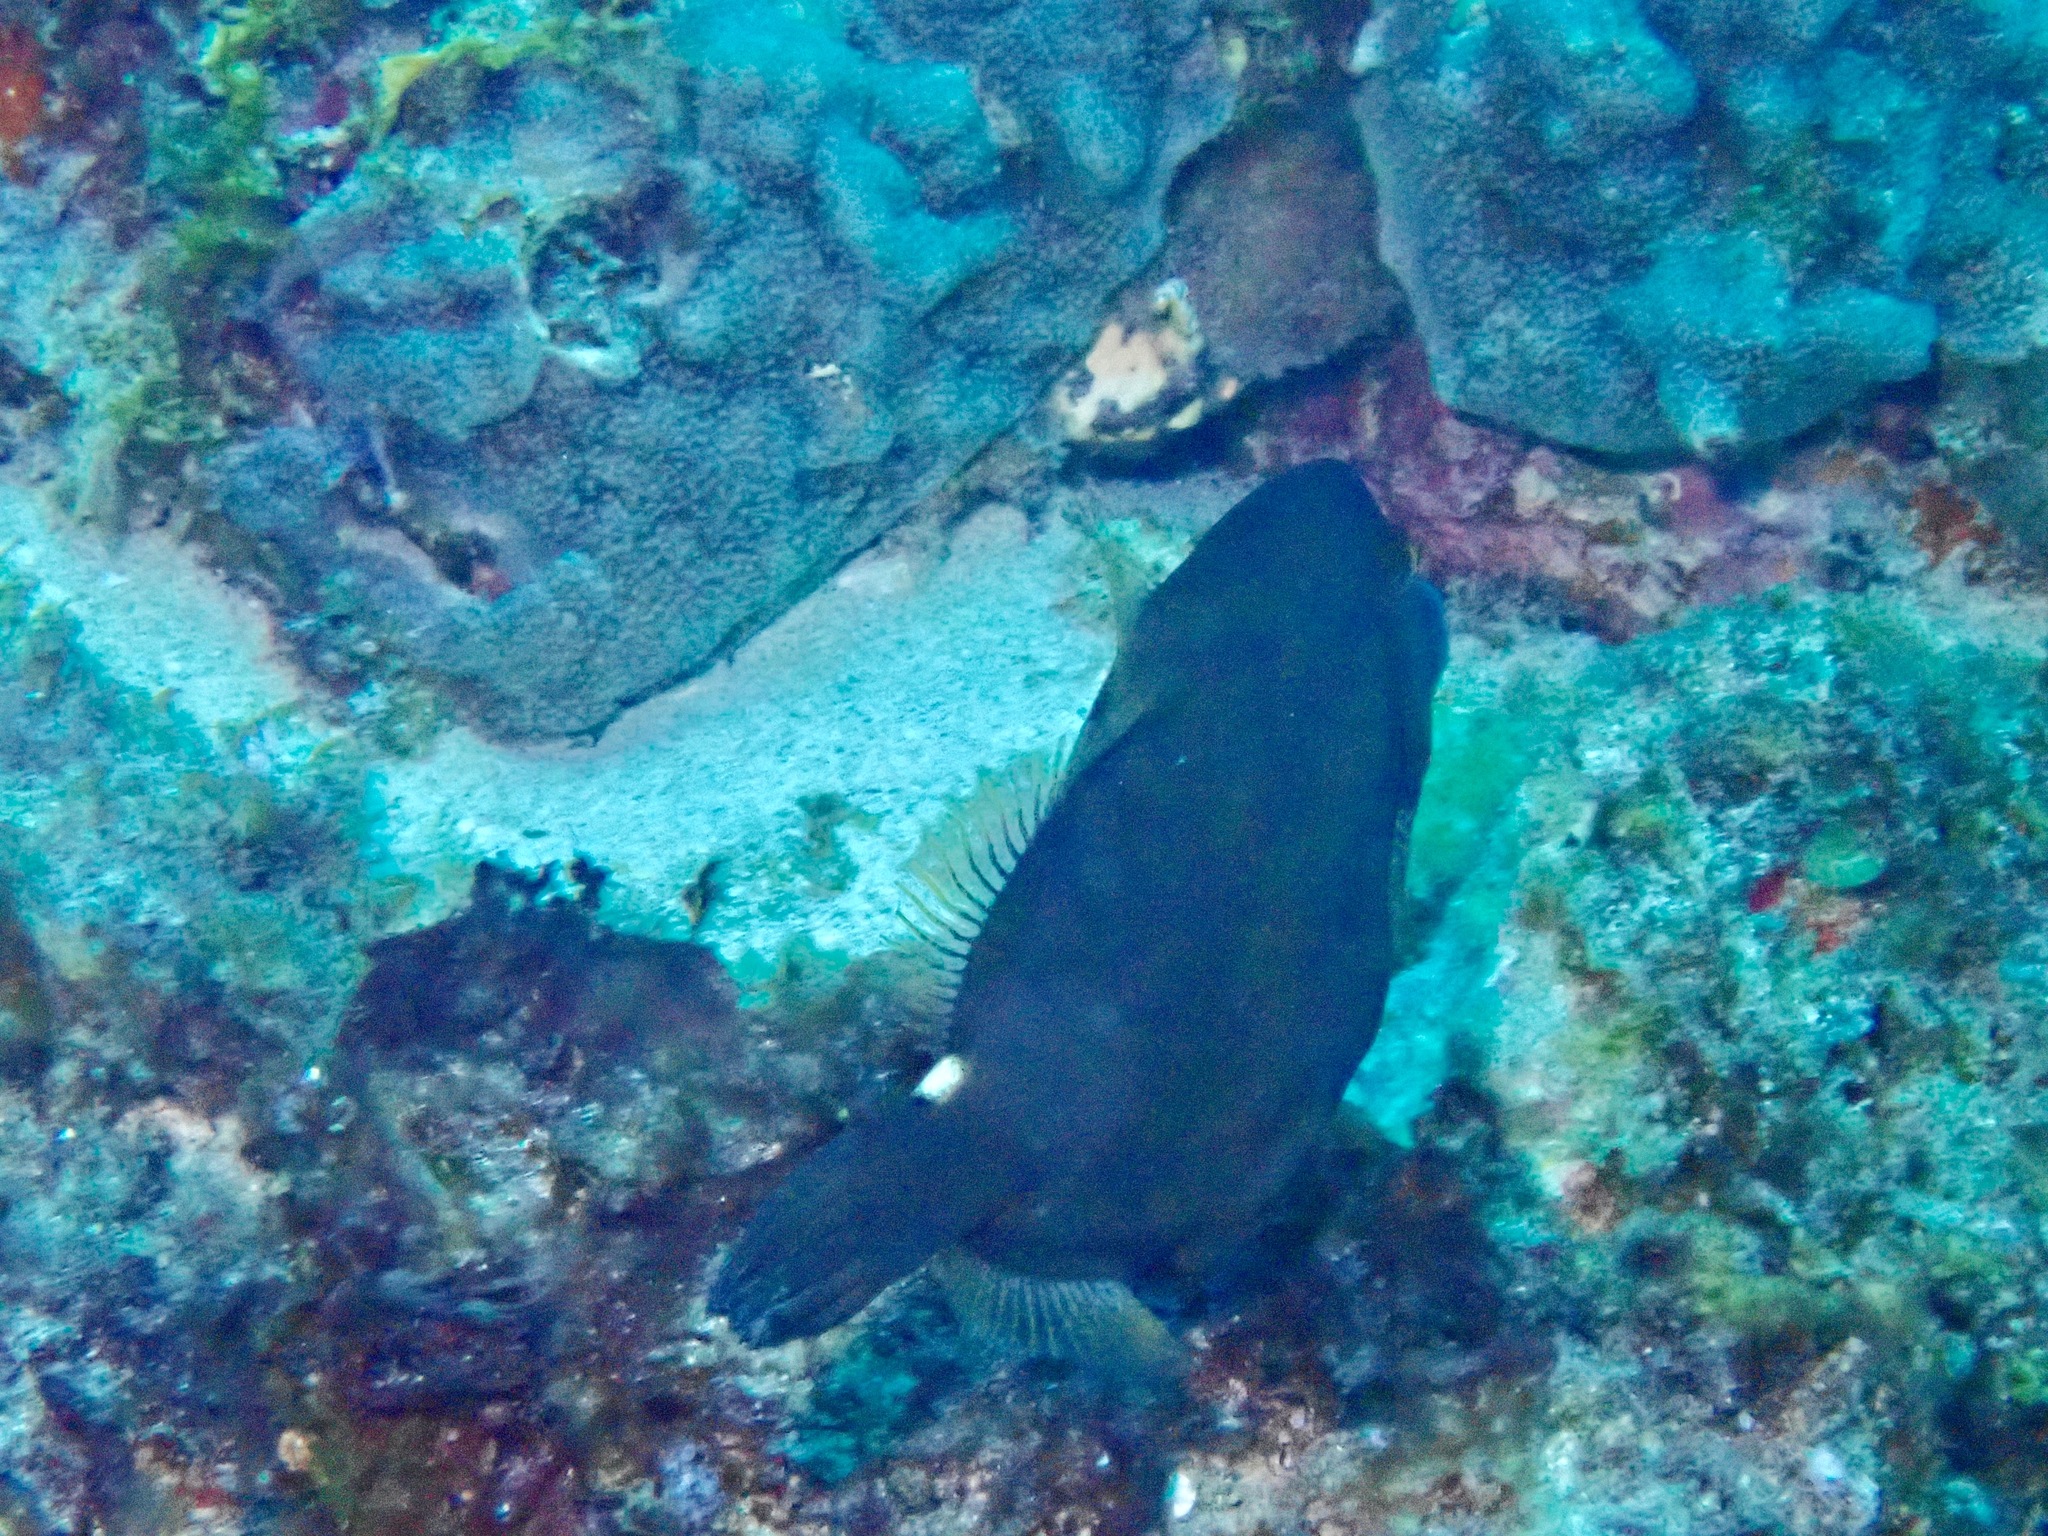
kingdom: Animalia
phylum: Chordata
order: Tetraodontiformes
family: Monacanthidae
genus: Cantherhines
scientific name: Cantherhines pardalis
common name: Honeycomb filefish
